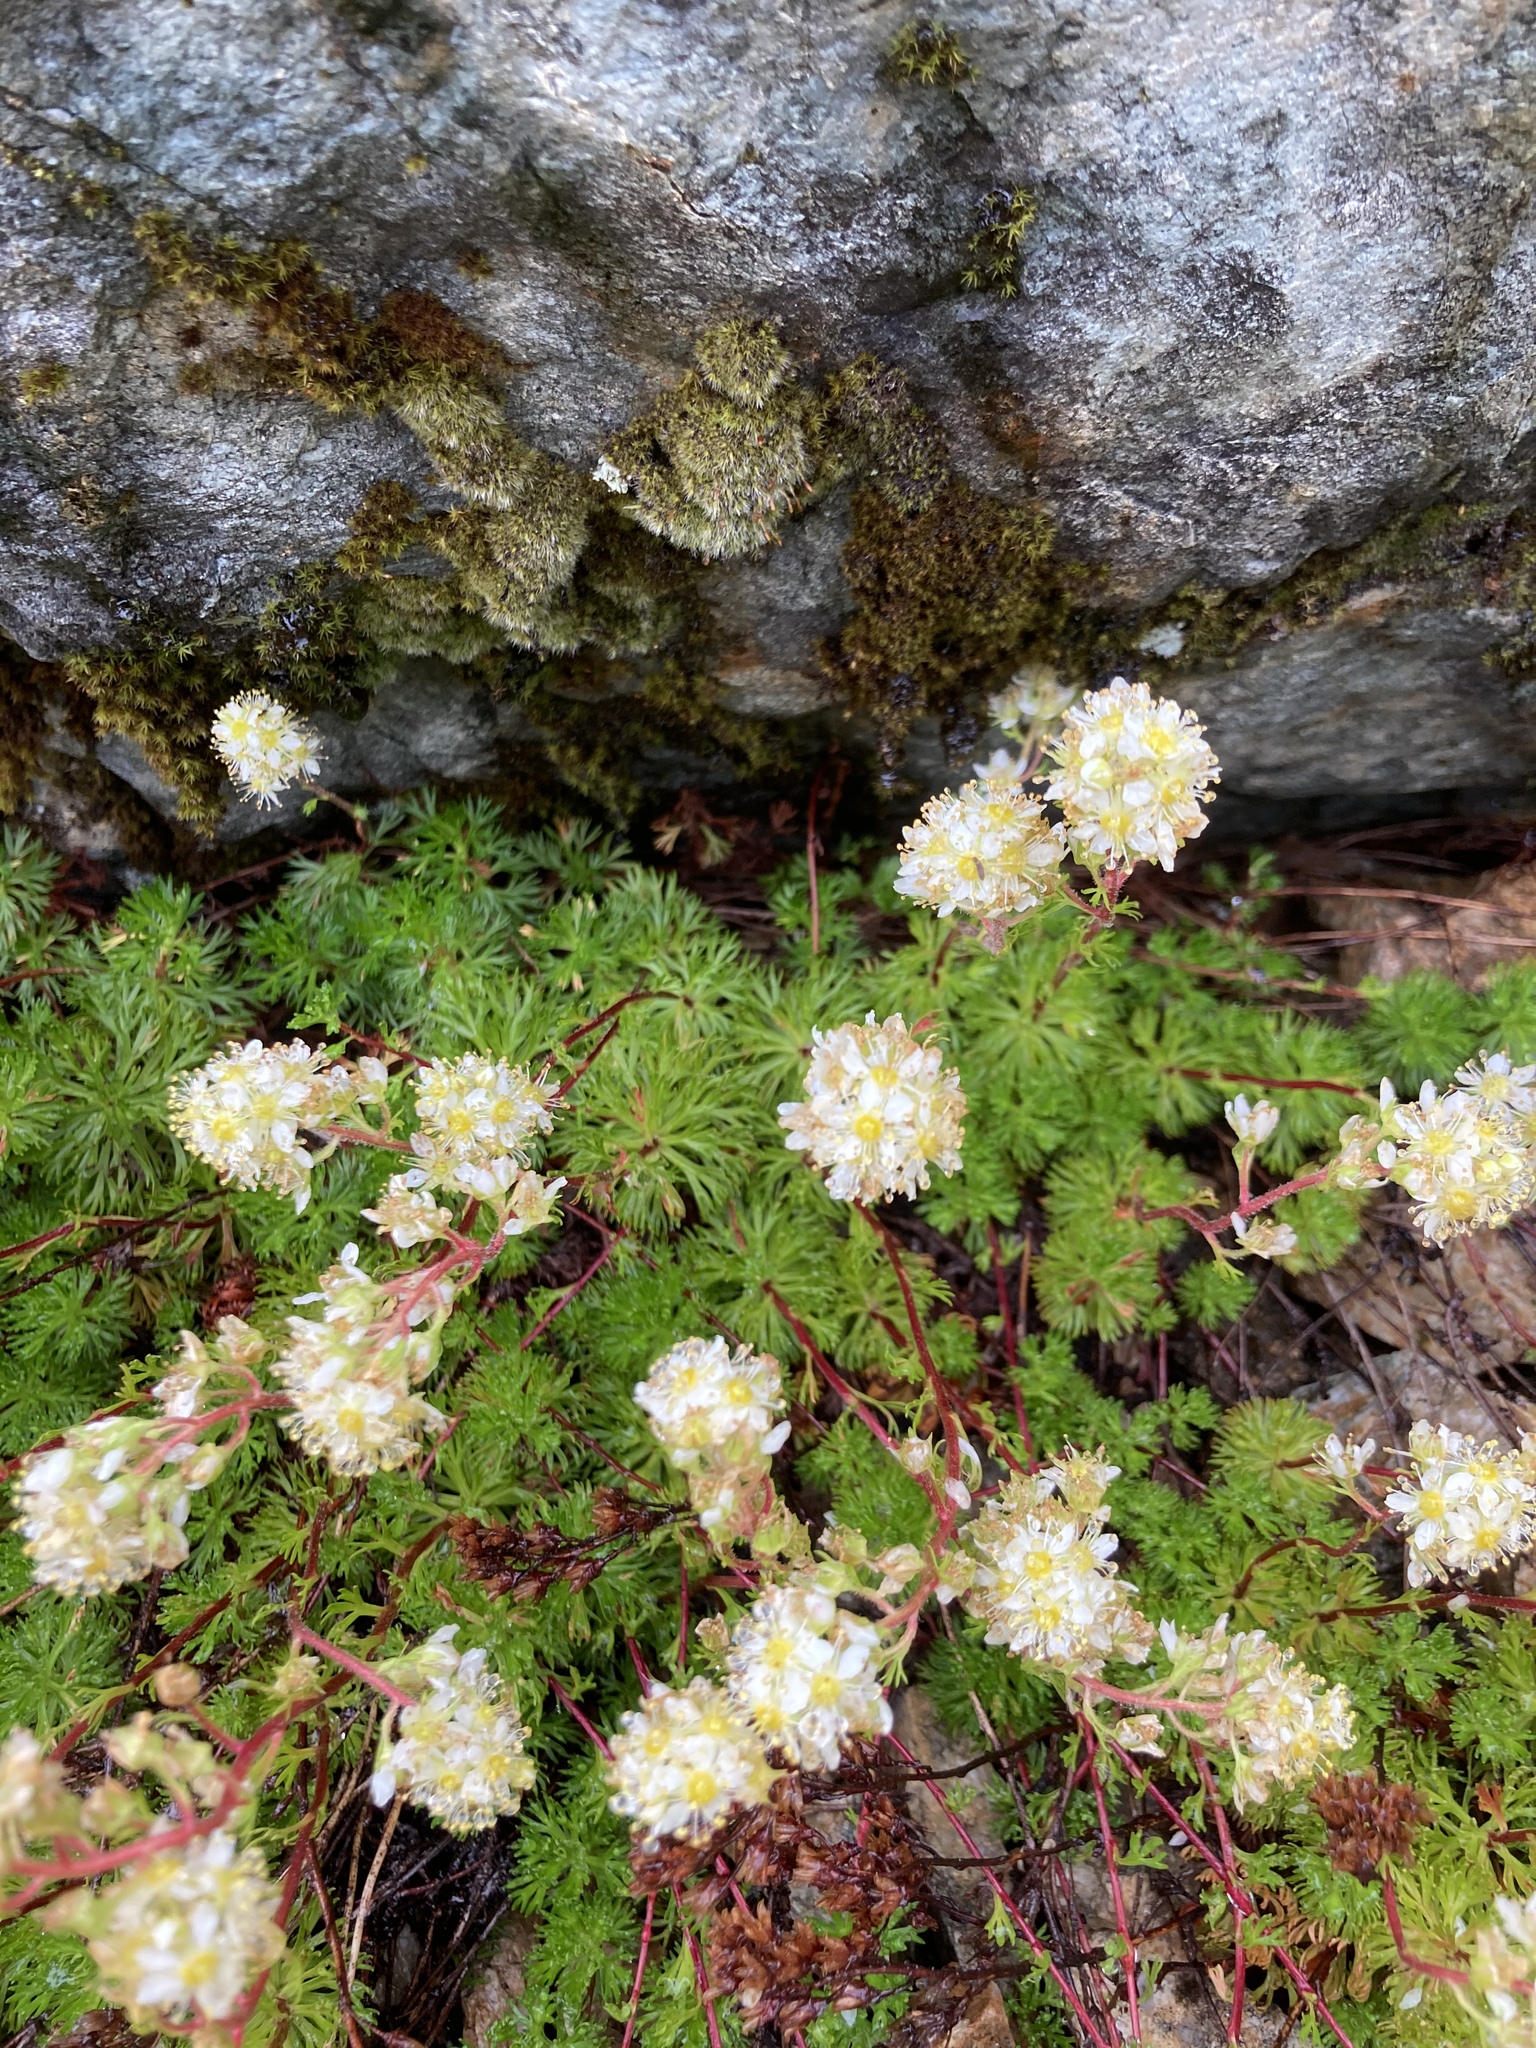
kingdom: Plantae
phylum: Tracheophyta
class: Magnoliopsida
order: Rosales
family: Rosaceae
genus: Luetkea
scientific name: Luetkea pectinata
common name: Partridgefoot
